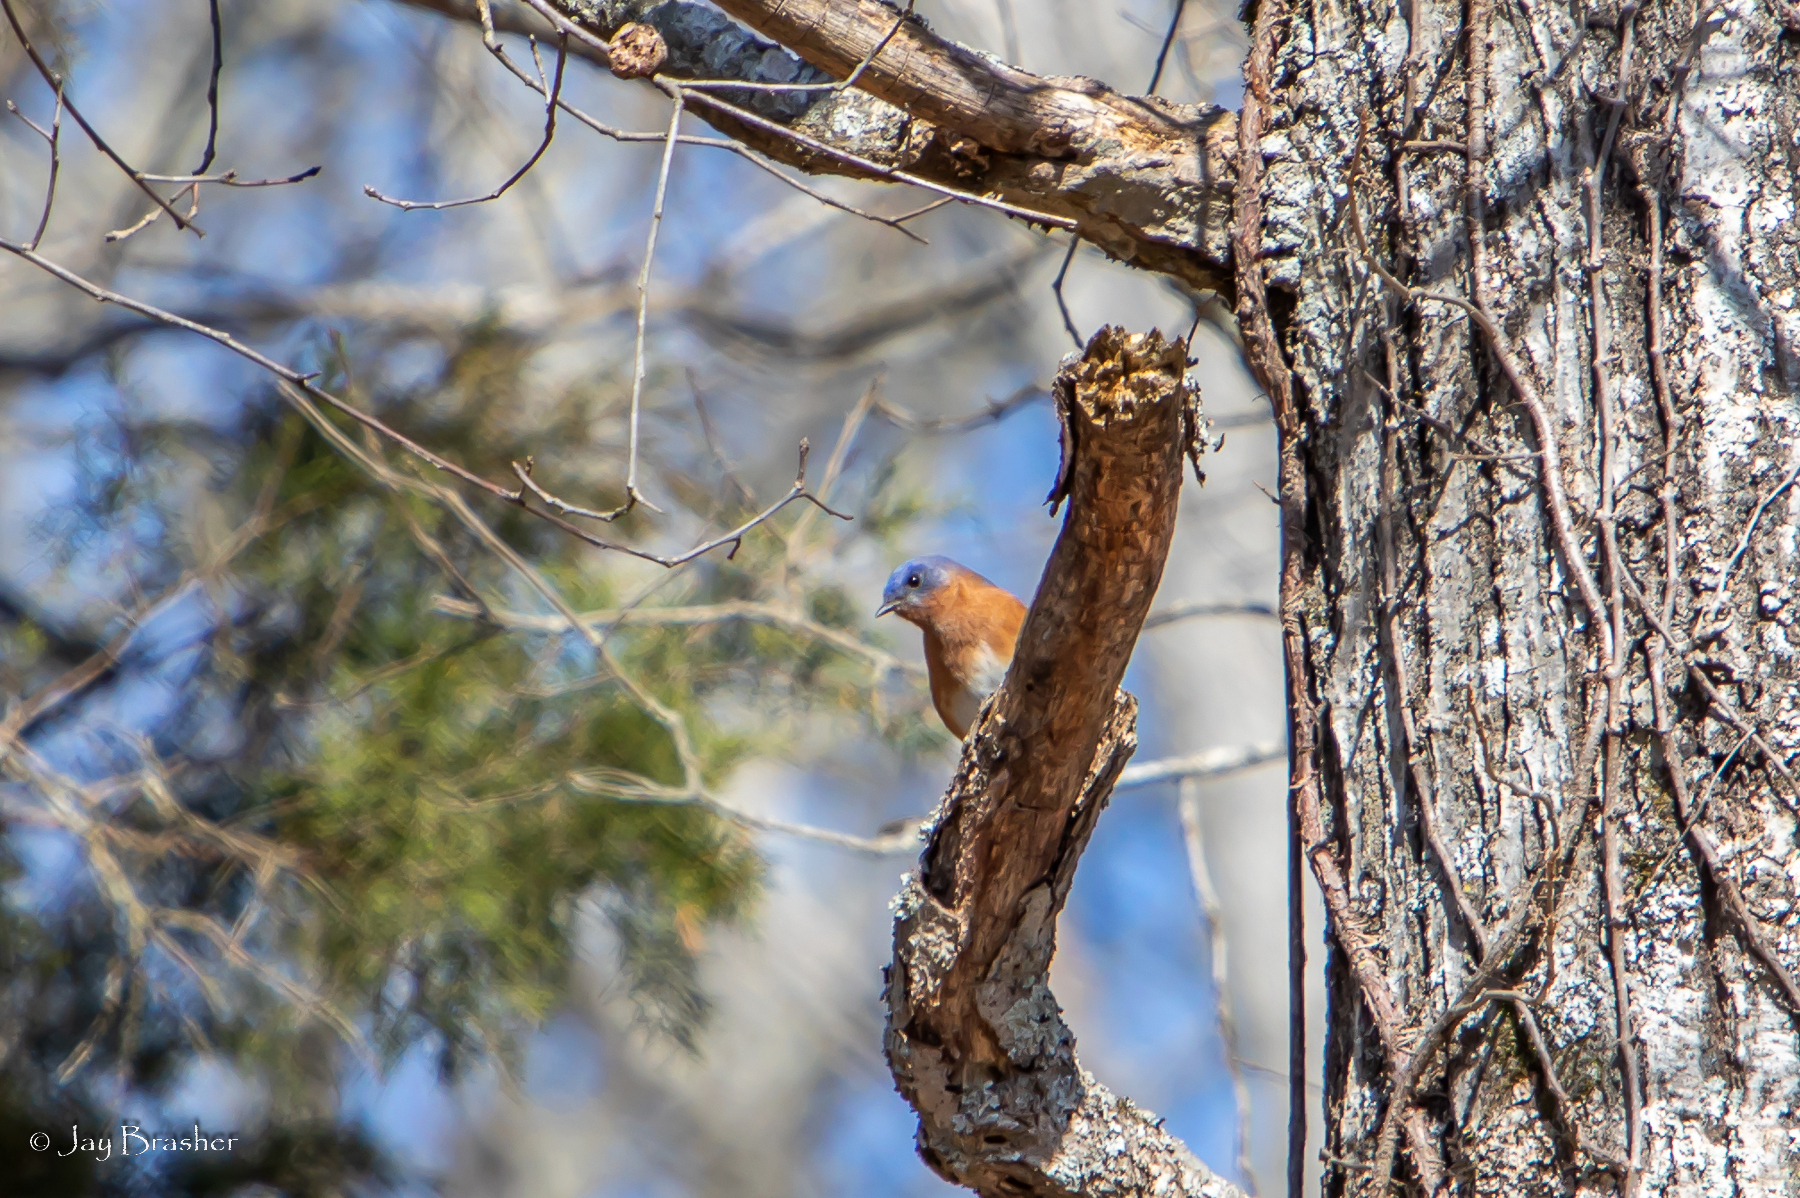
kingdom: Animalia
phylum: Chordata
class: Aves
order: Passeriformes
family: Turdidae
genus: Sialia
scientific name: Sialia sialis
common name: Eastern bluebird
